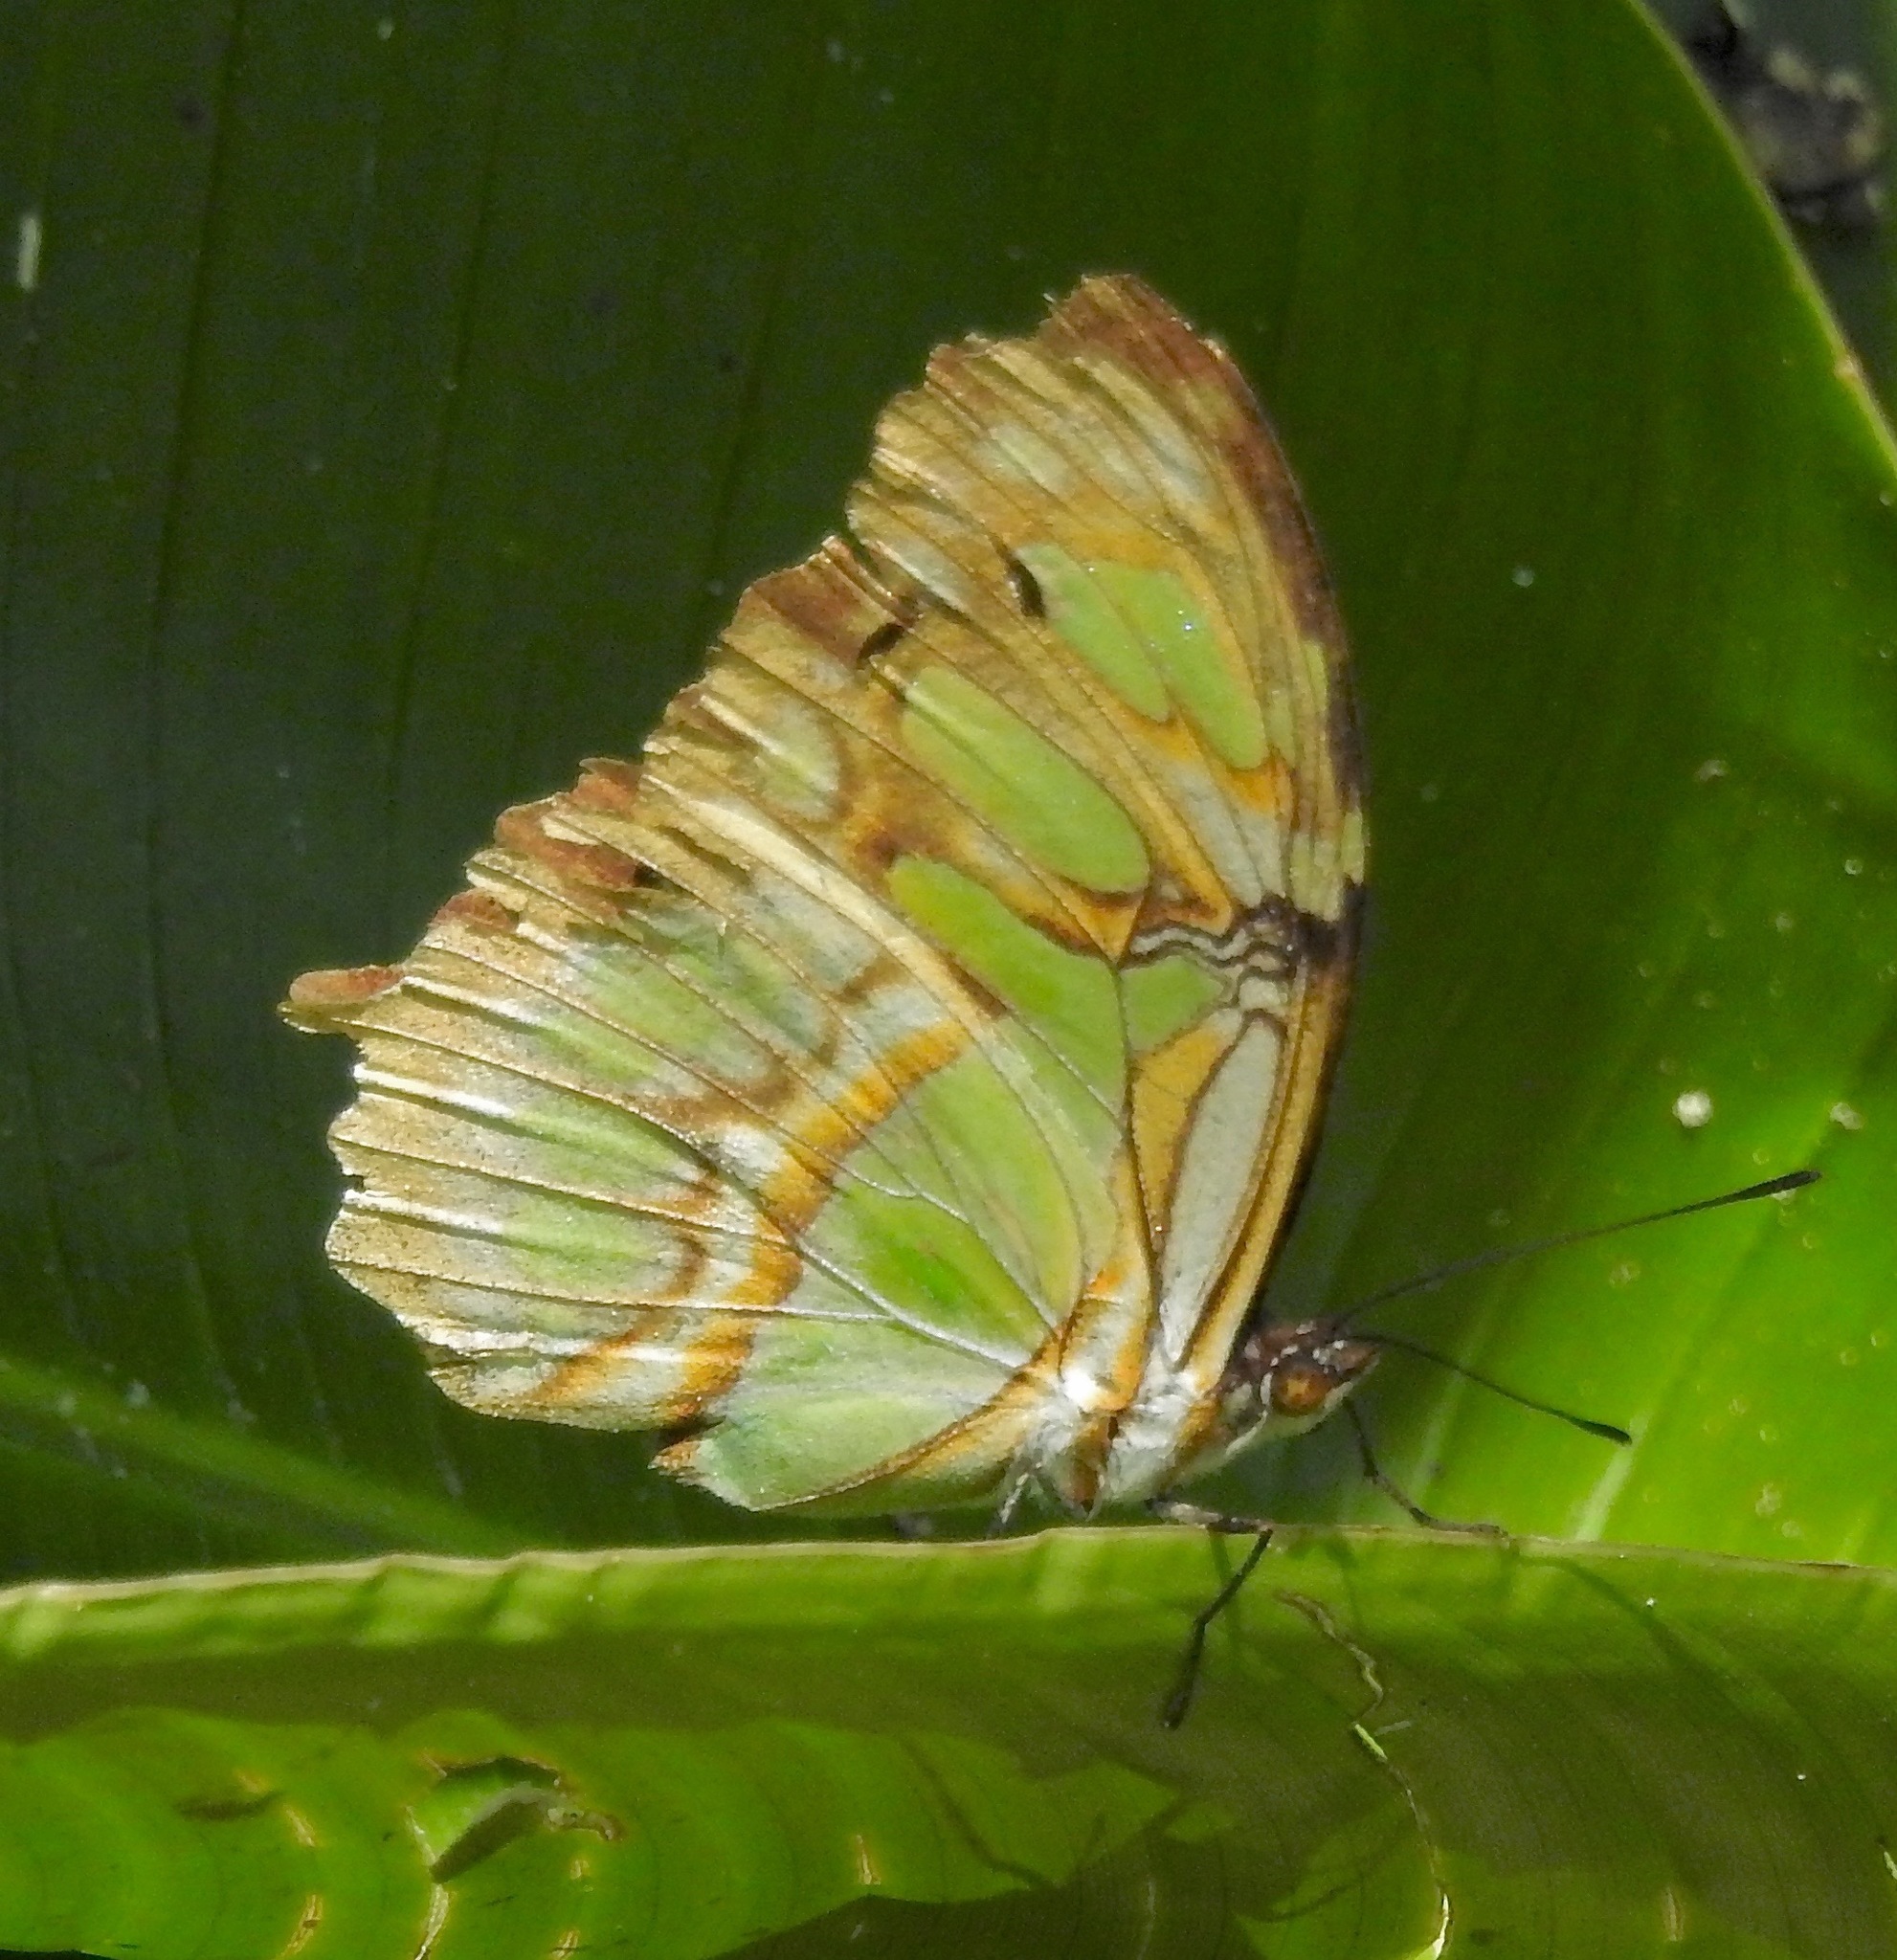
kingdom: Animalia
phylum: Arthropoda
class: Insecta
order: Lepidoptera
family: Nymphalidae
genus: Siproeta
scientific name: Siproeta stelenes
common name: Malachite
